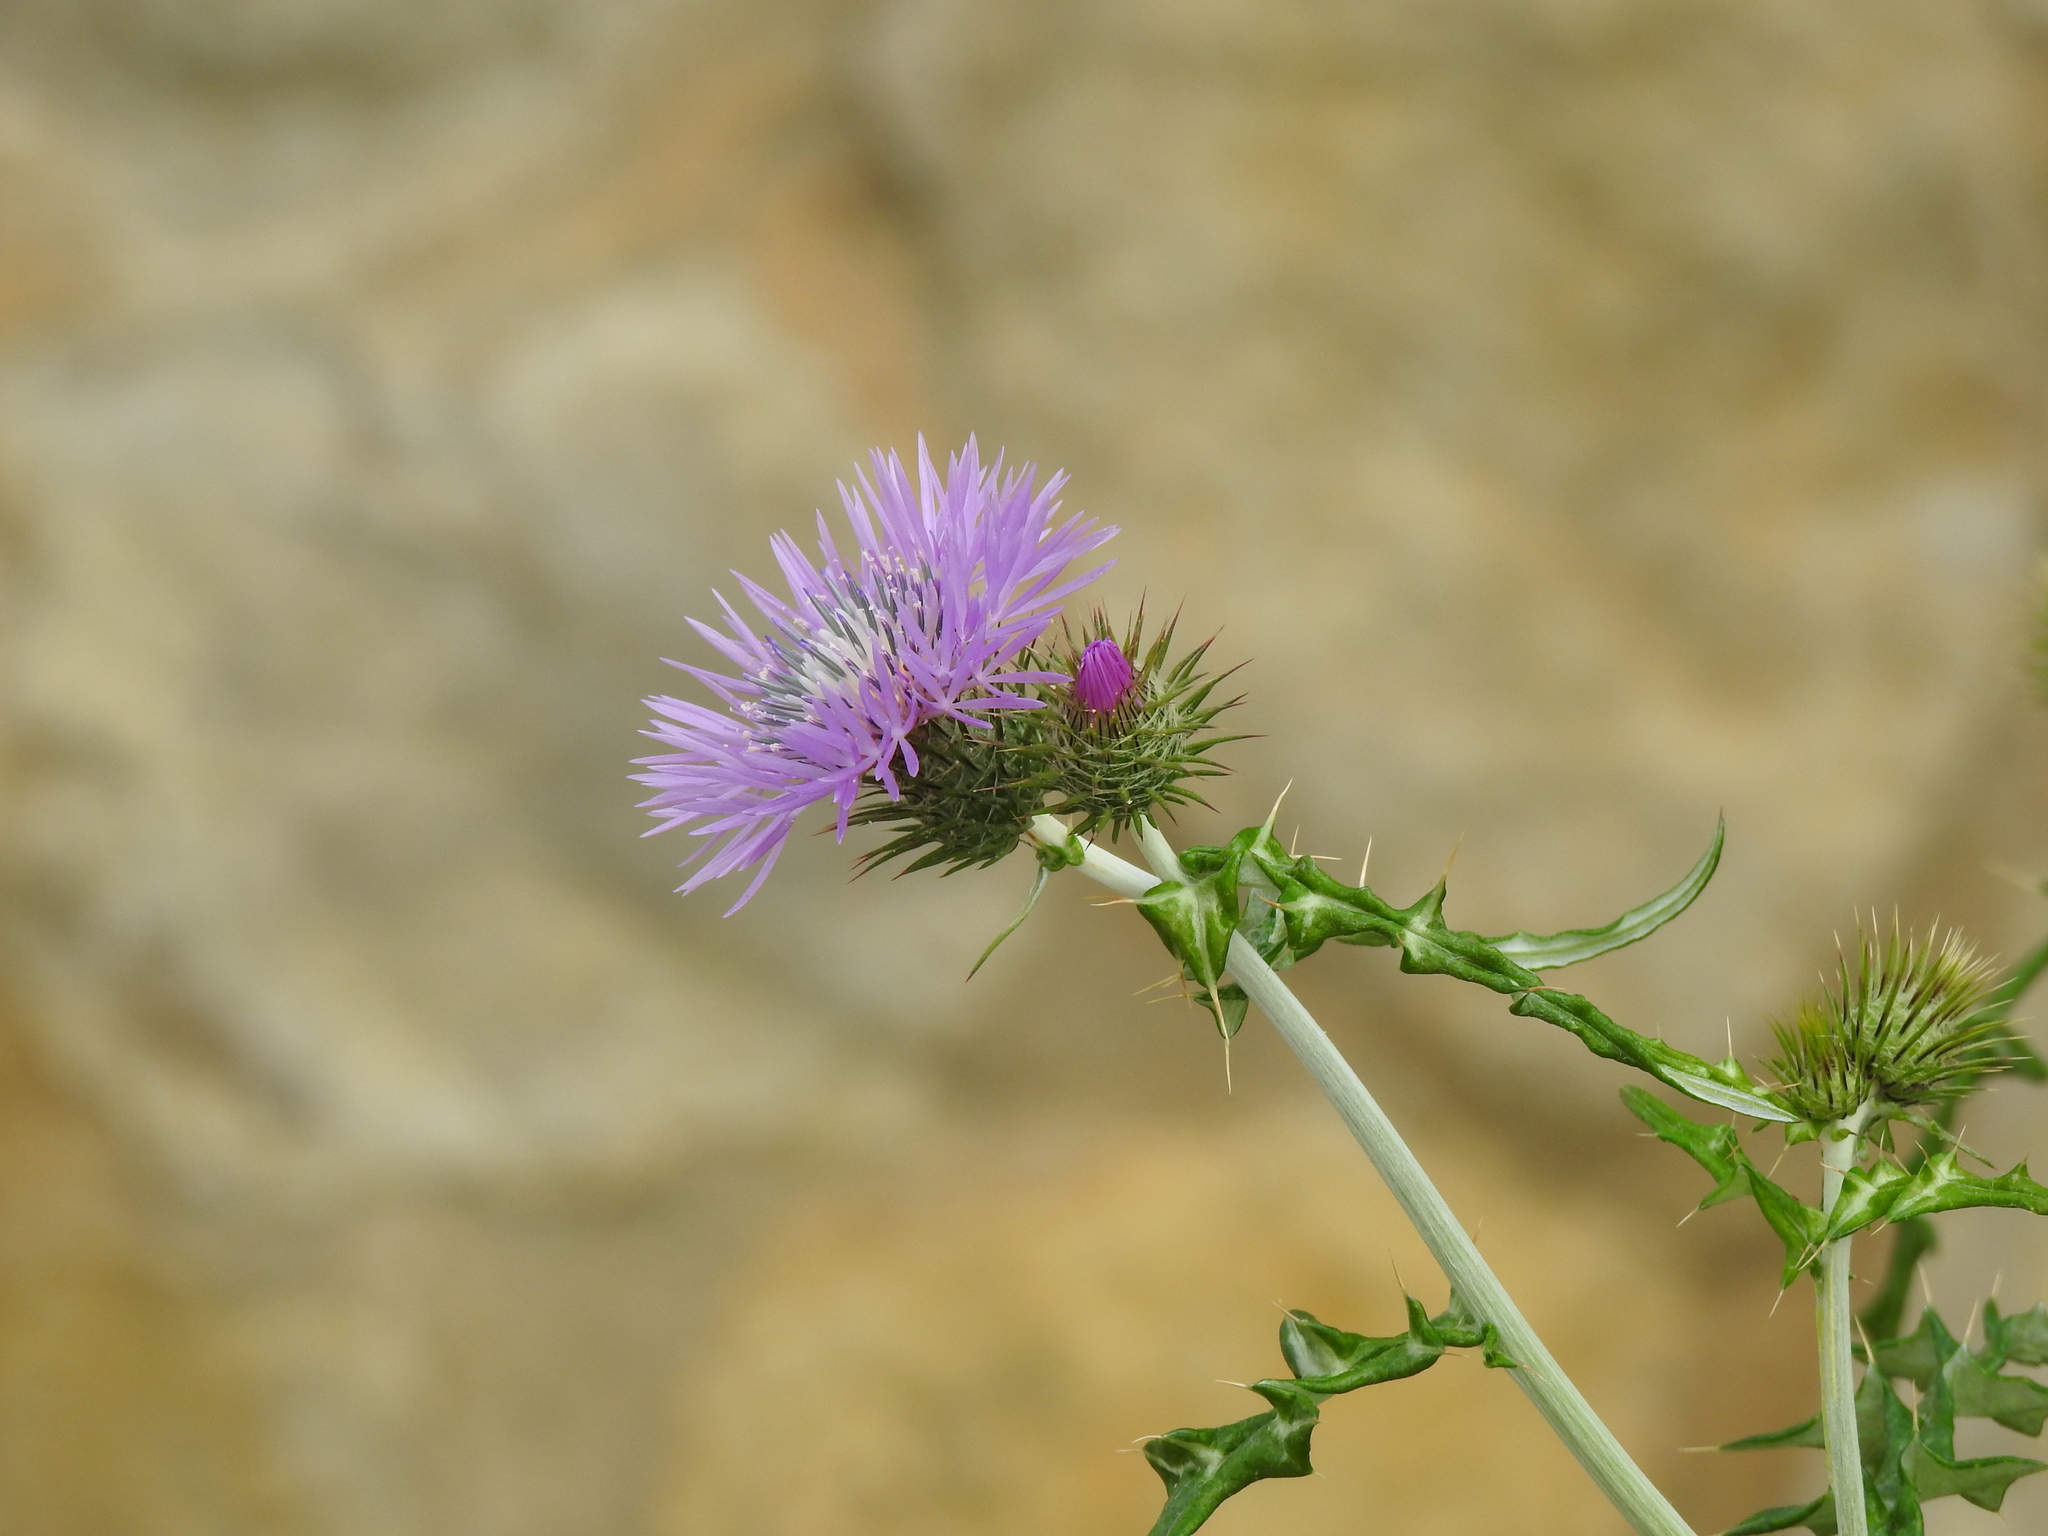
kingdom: Plantae
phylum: Tracheophyta
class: Magnoliopsida
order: Asterales
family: Asteraceae
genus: Galactites
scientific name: Galactites tomentosa
